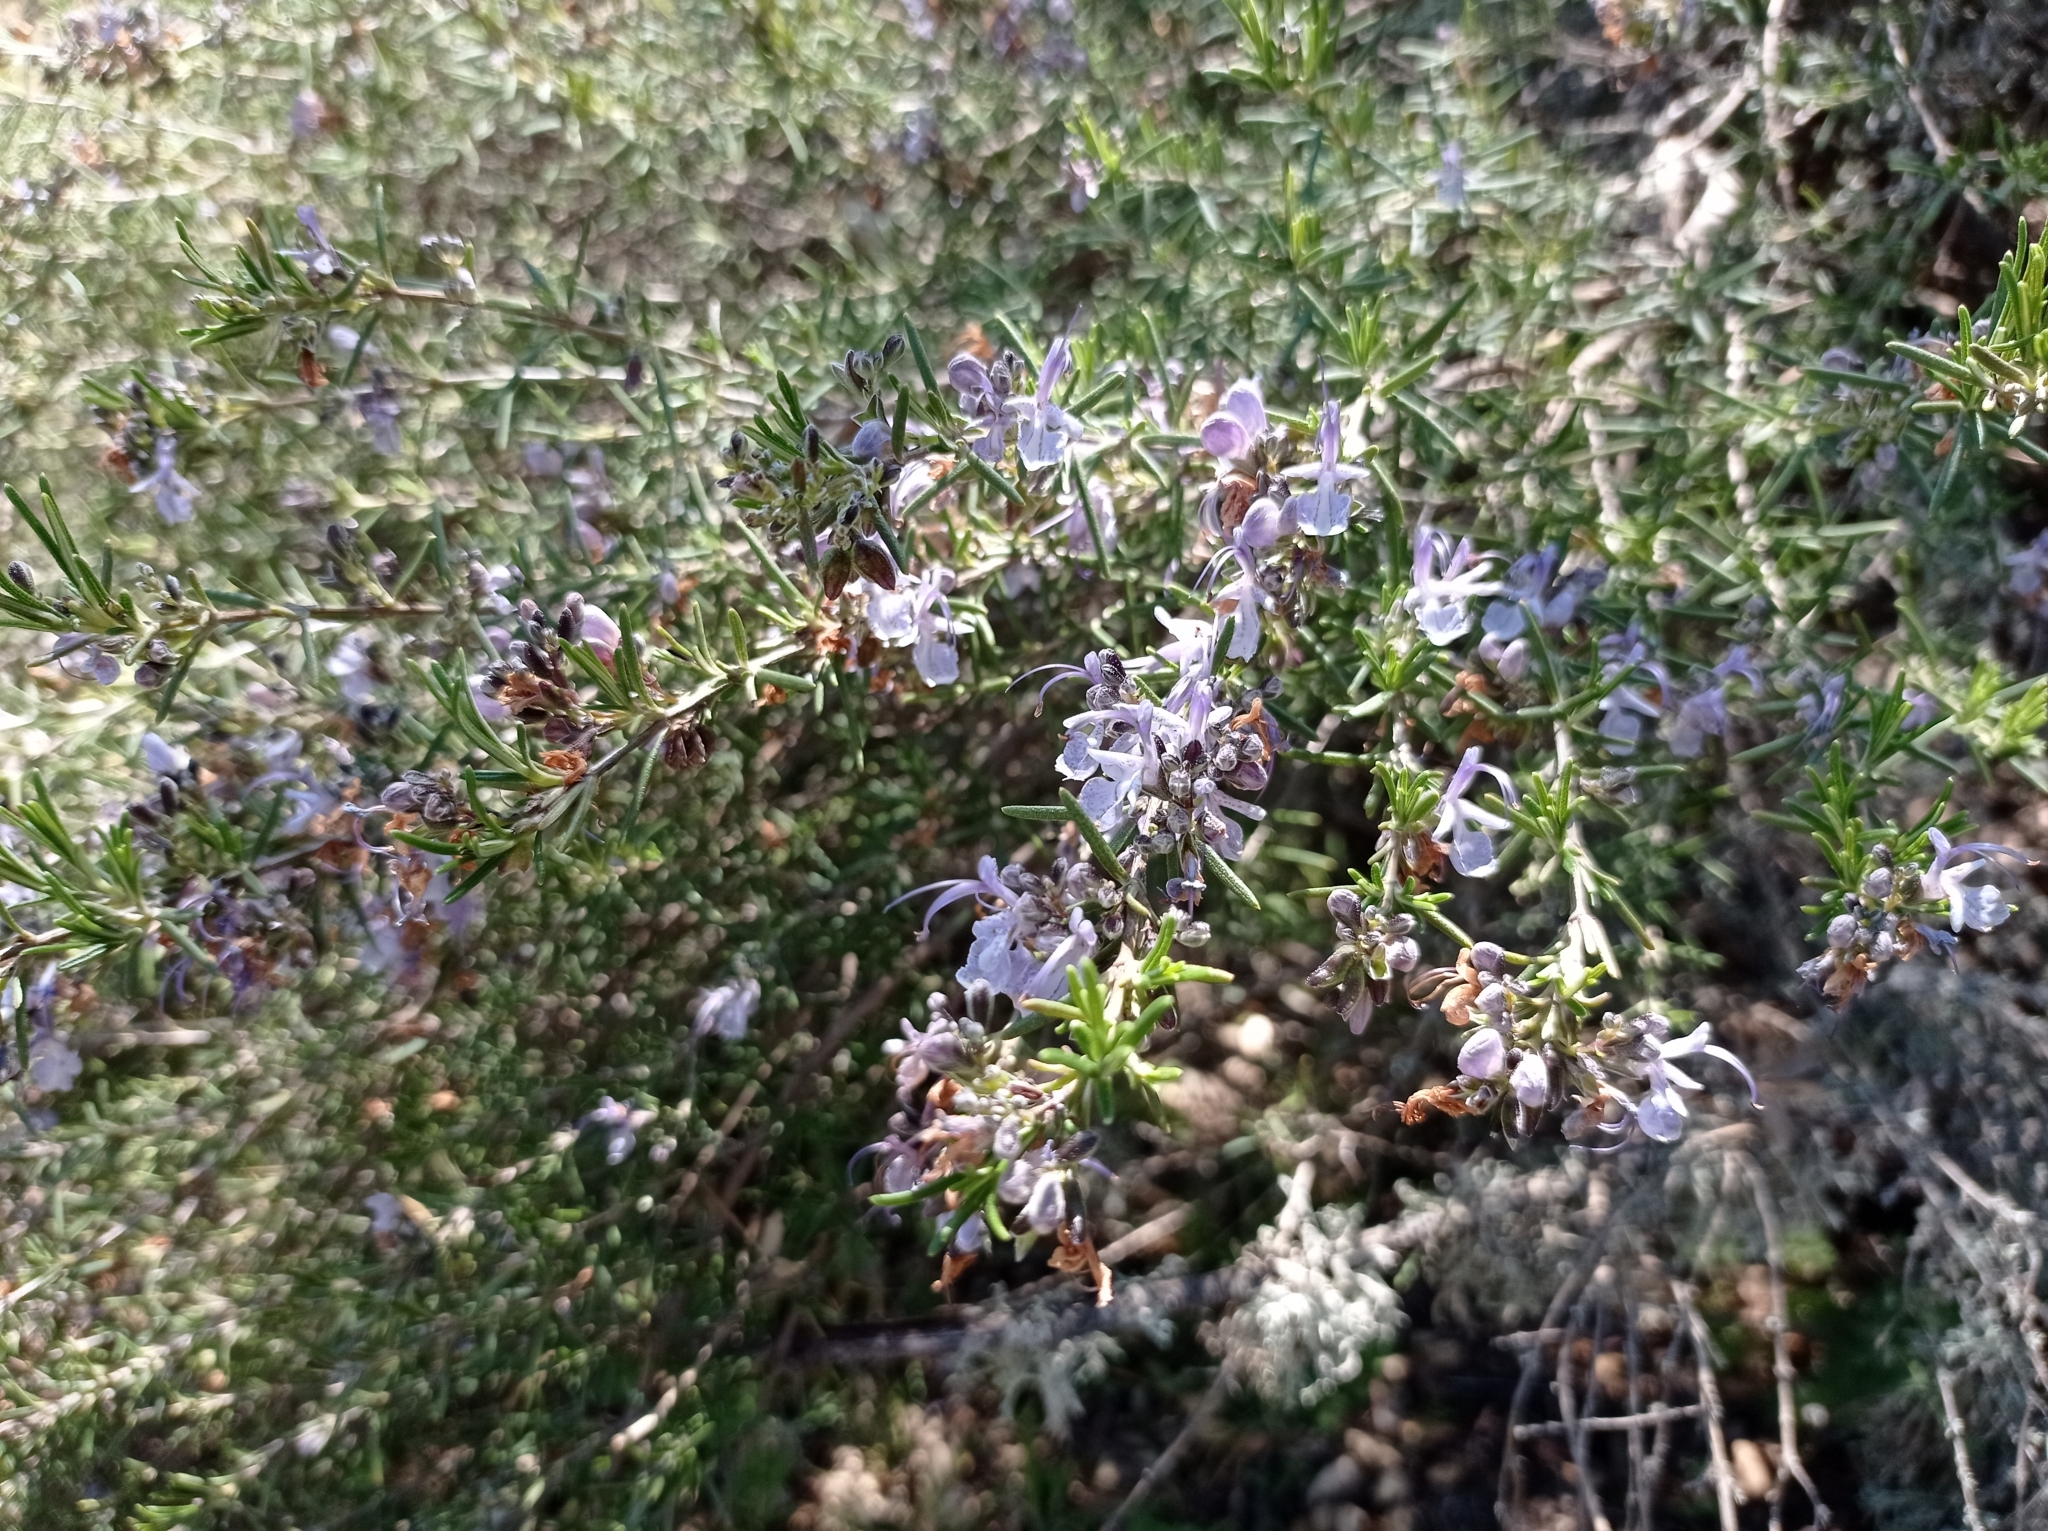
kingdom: Plantae
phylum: Tracheophyta
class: Magnoliopsida
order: Lamiales
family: Lamiaceae
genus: Salvia
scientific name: Salvia rosmarinus
